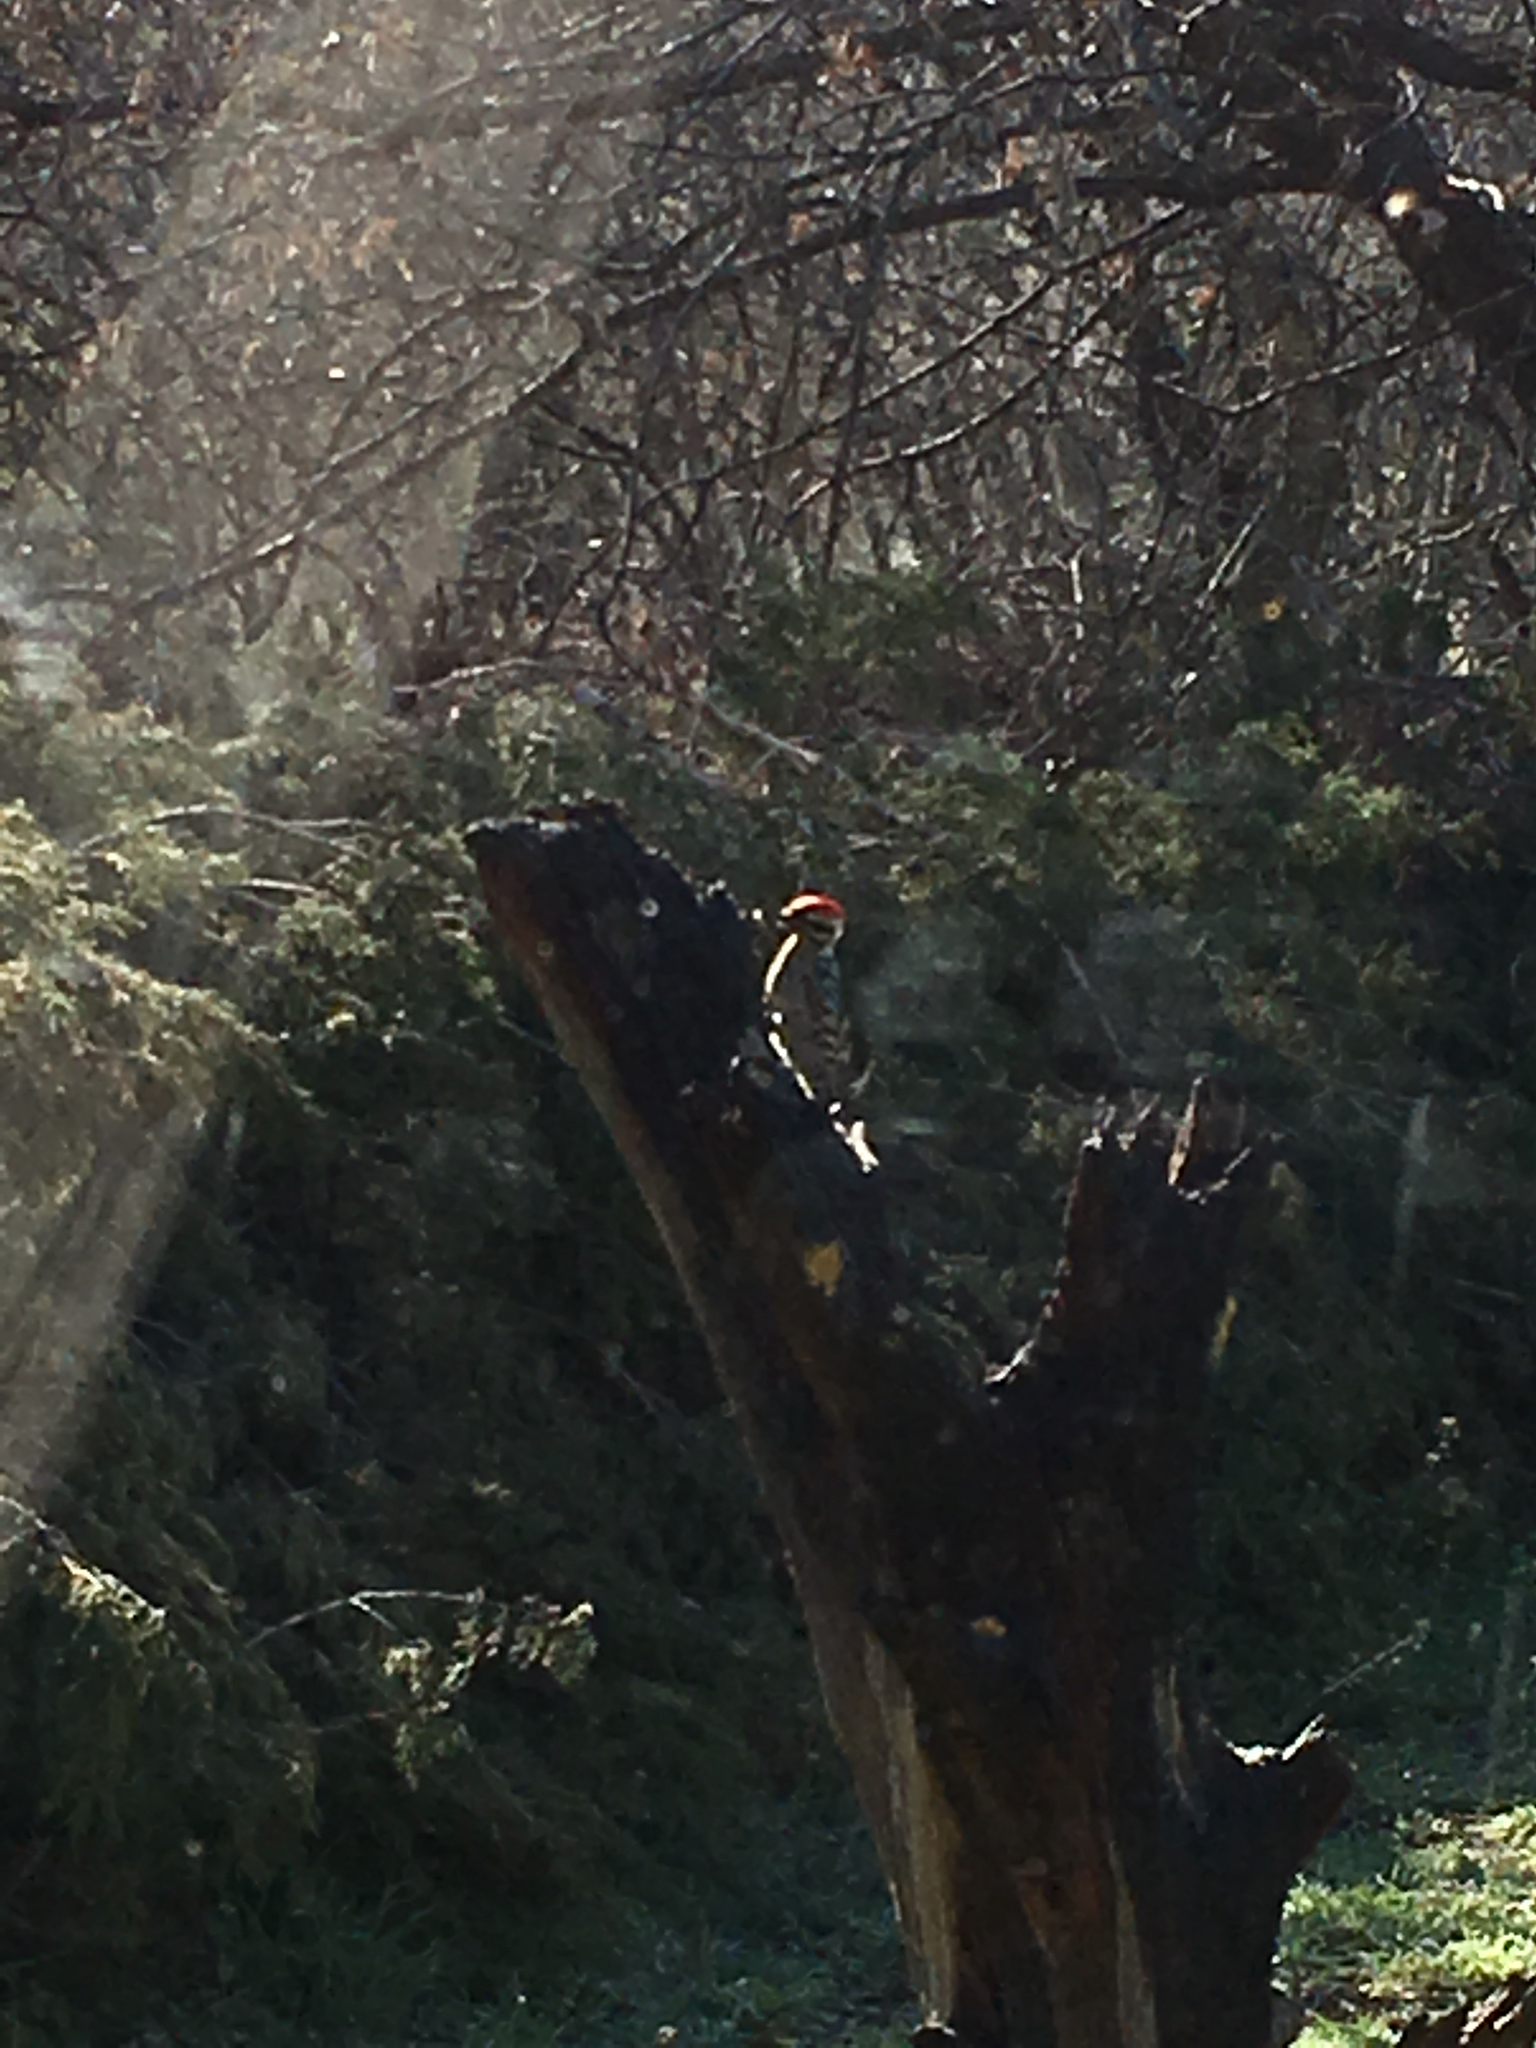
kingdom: Animalia
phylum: Chordata
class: Aves
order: Piciformes
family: Picidae
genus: Dryobates
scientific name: Dryobates scalaris
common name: Ladder-backed woodpecker
